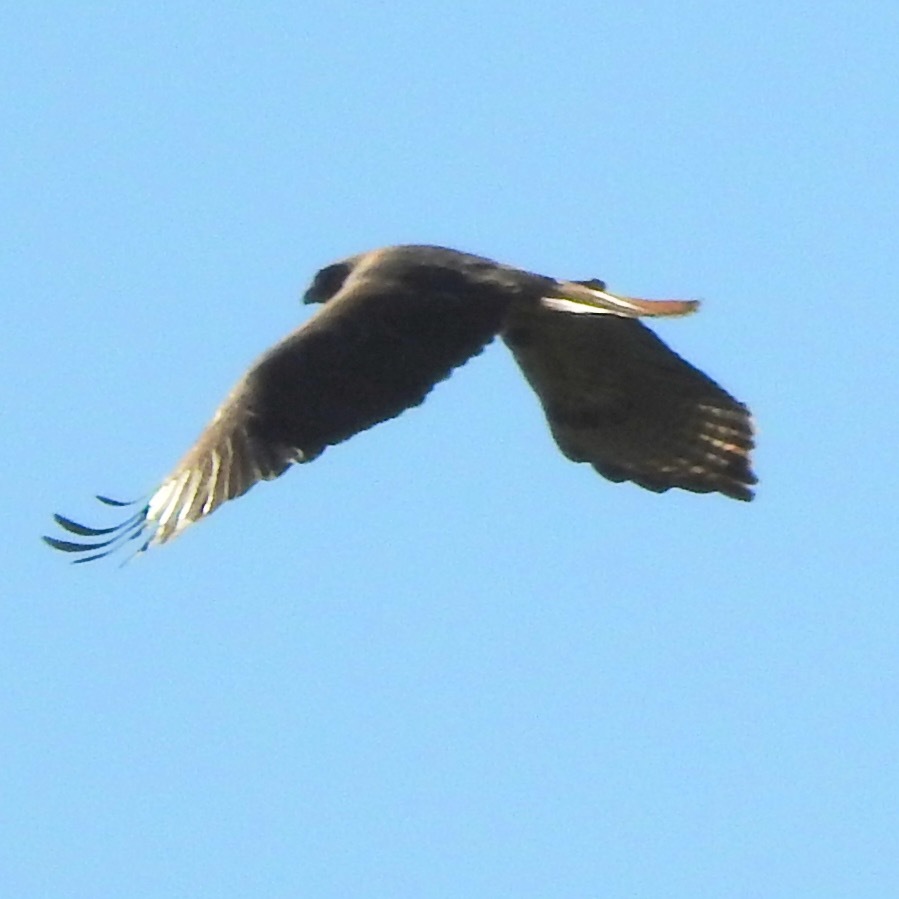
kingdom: Animalia
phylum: Chordata
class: Aves
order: Accipitriformes
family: Accipitridae
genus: Buteo
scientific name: Buteo jamaicensis
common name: Red-tailed hawk
